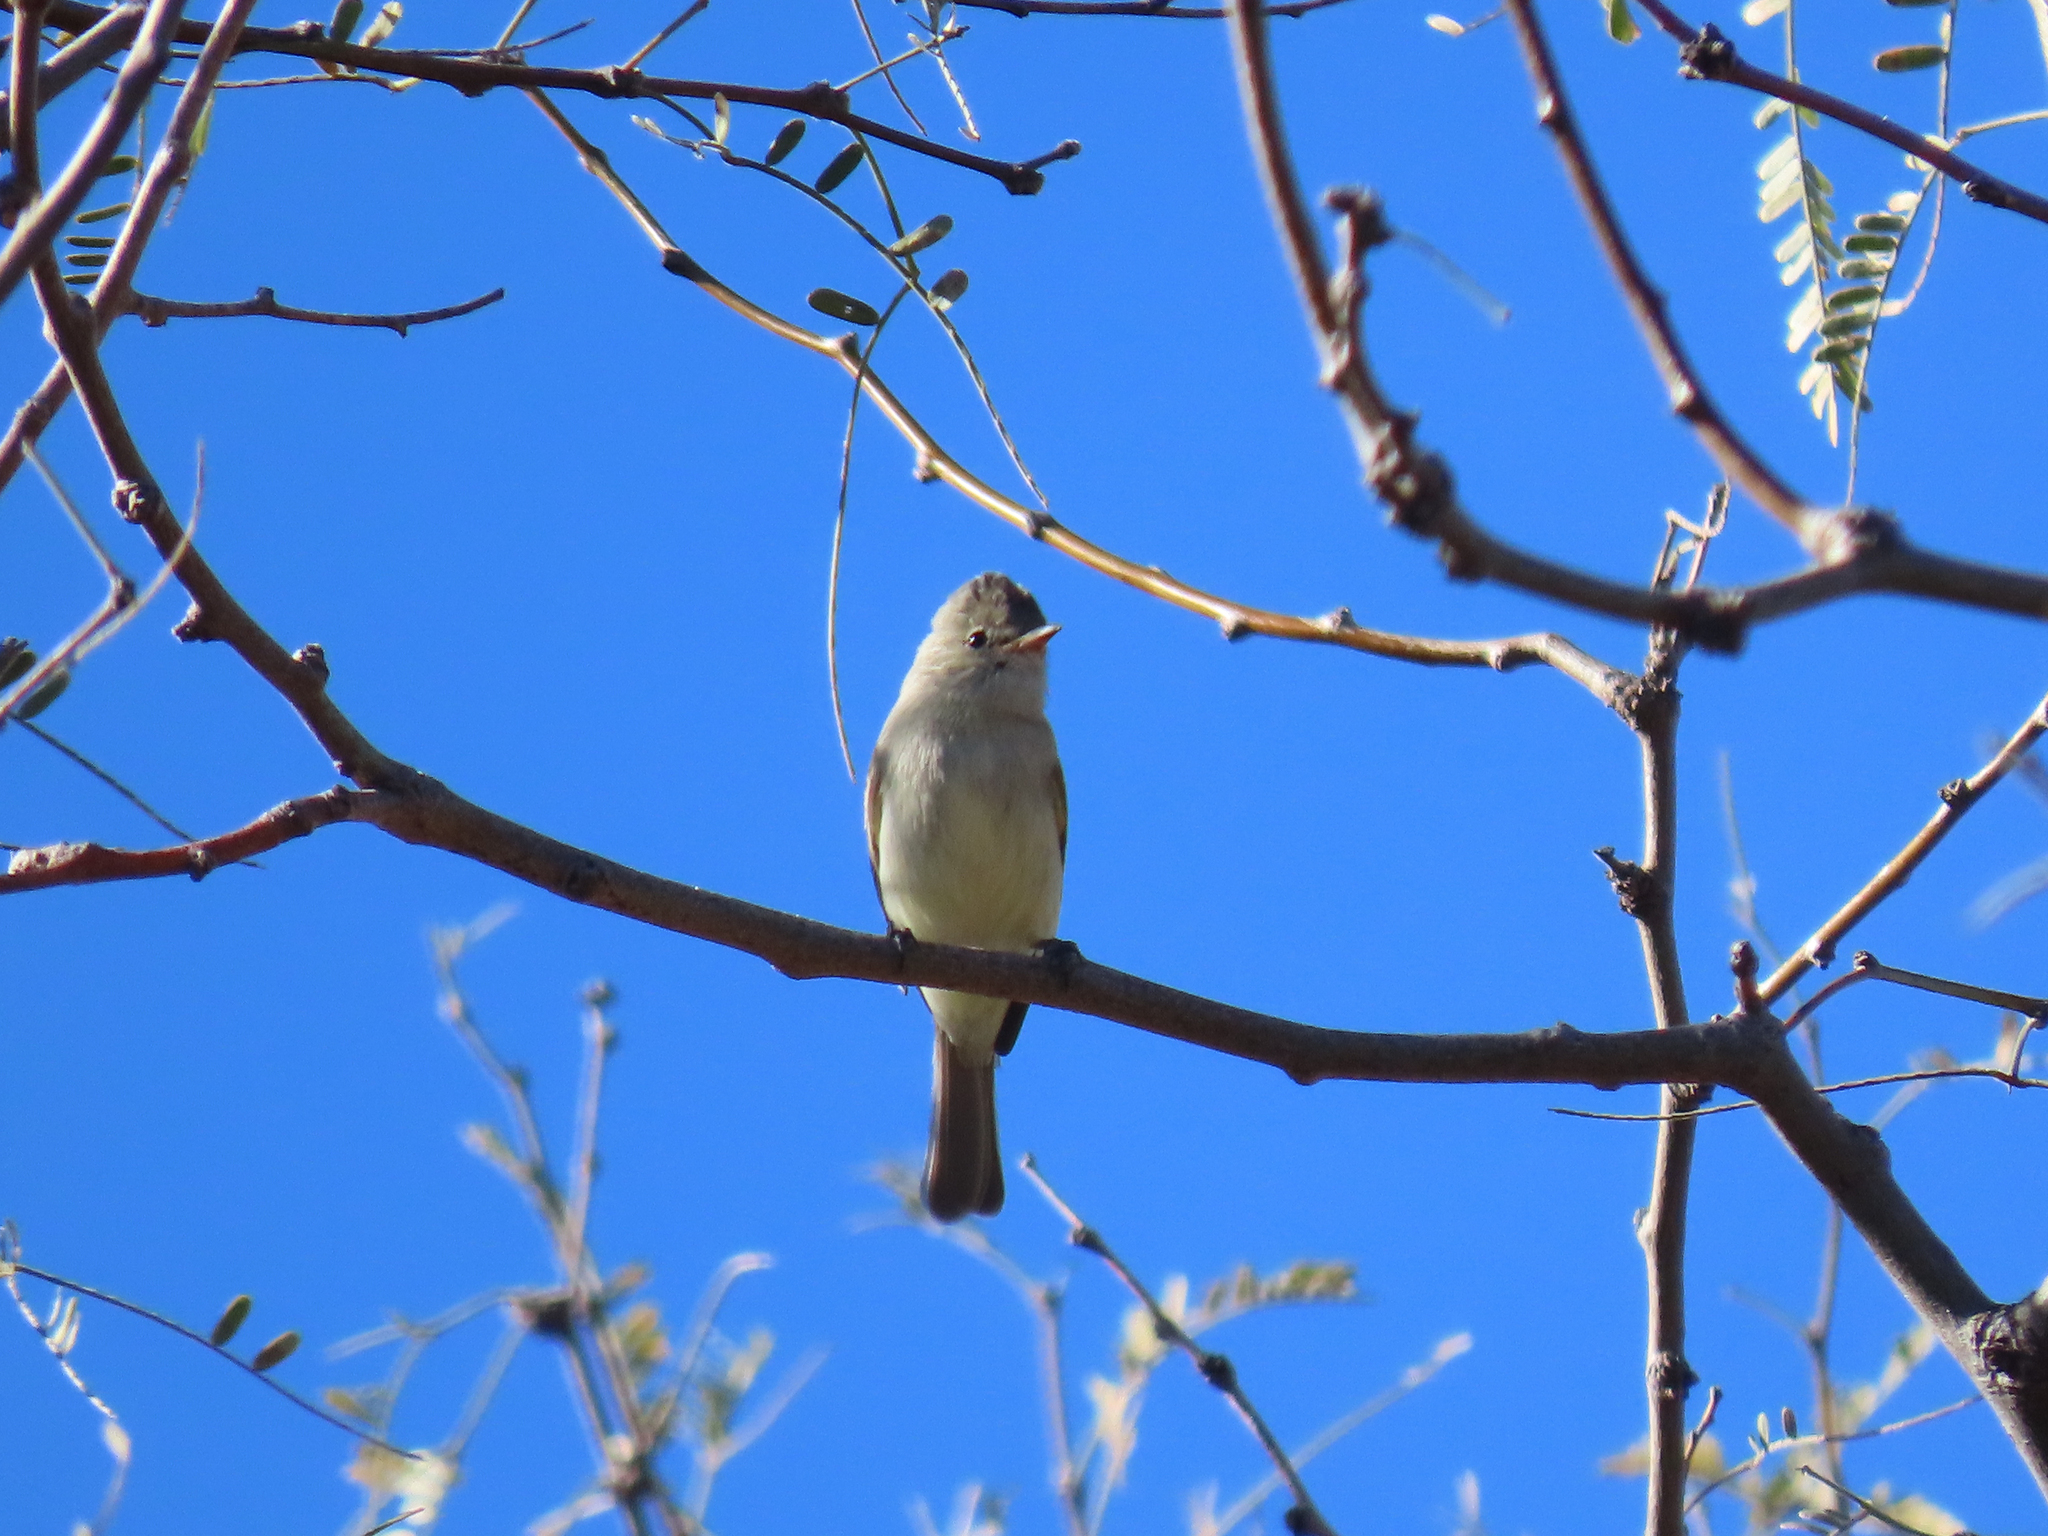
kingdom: Animalia
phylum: Chordata
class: Aves
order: Passeriformes
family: Tyrannidae
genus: Camptostoma
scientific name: Camptostoma imberbe
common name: Northern beardless-tyrannulet
